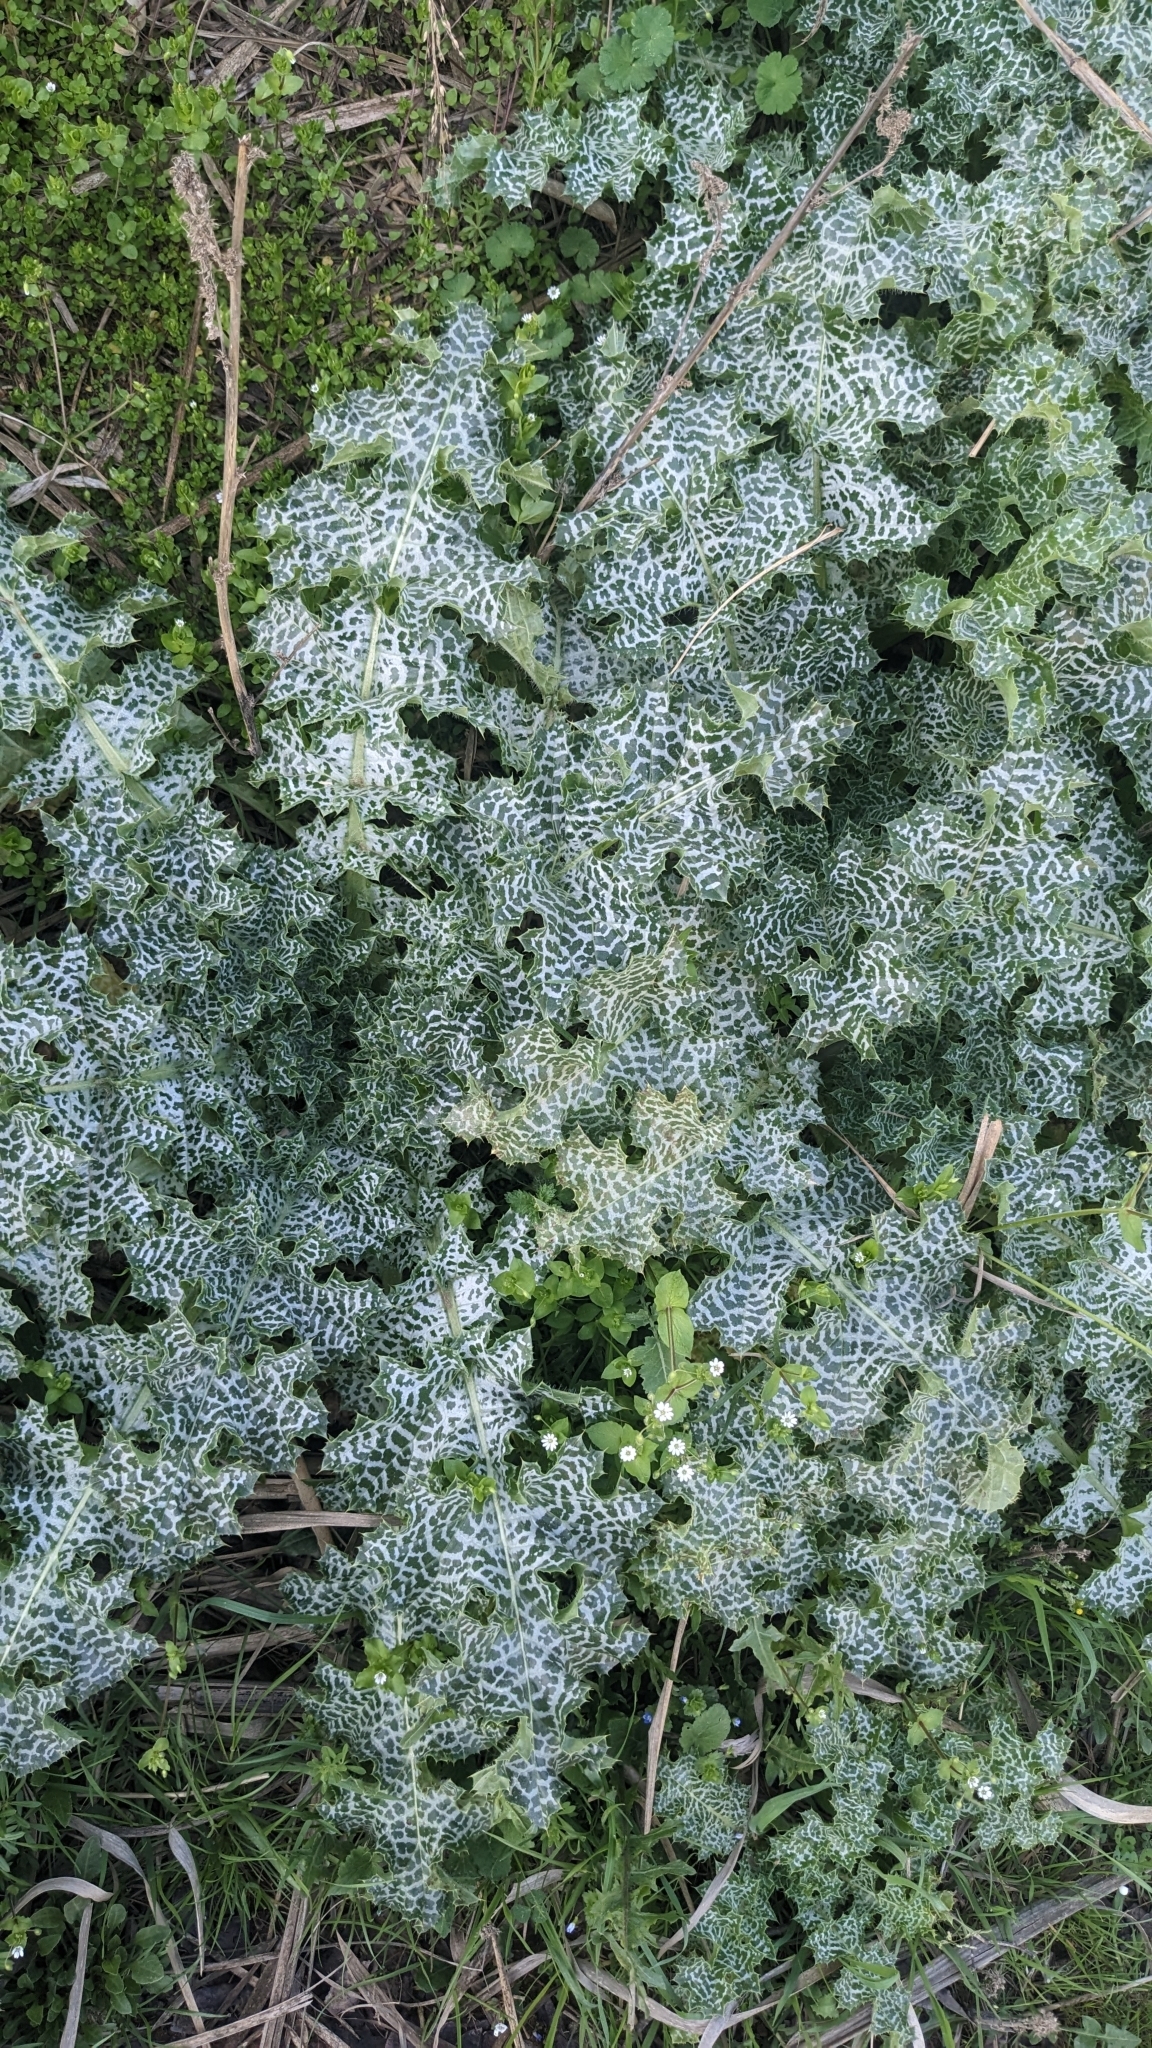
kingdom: Plantae
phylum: Tracheophyta
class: Magnoliopsida
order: Asterales
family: Asteraceae
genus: Silybum
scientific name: Silybum marianum
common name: Milk thistle
